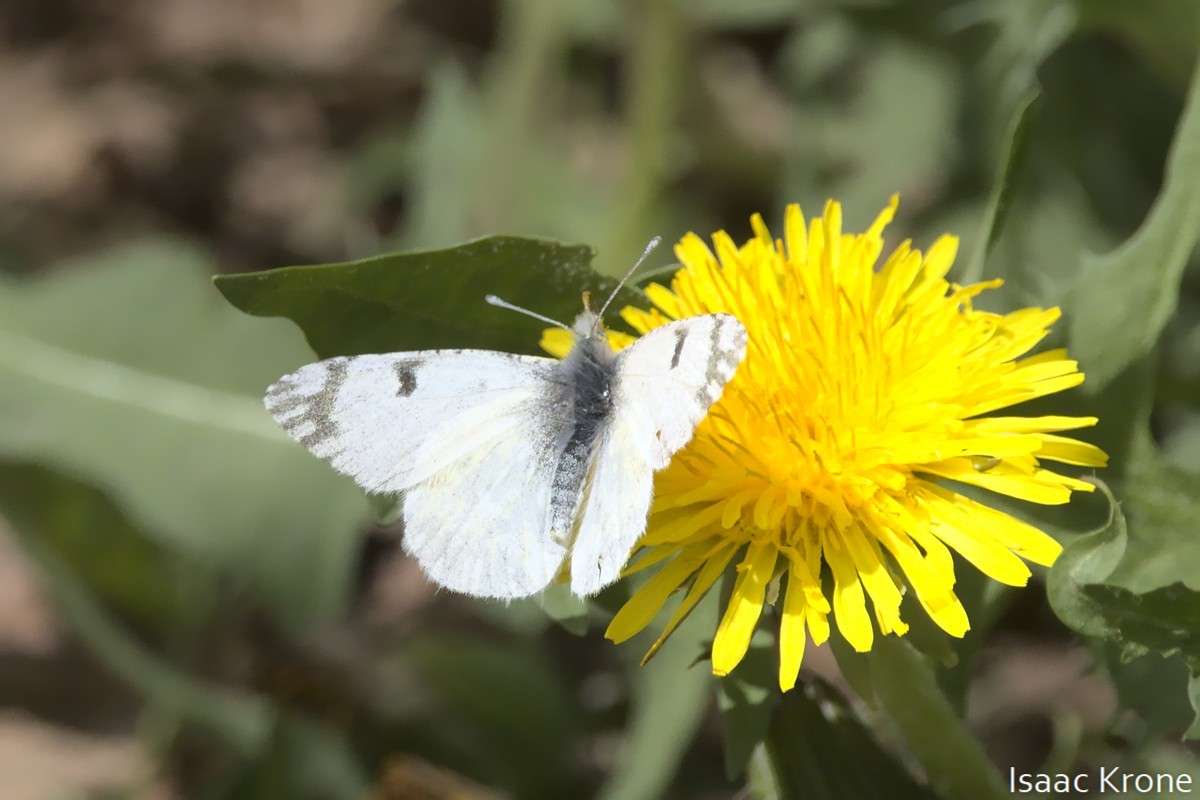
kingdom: Animalia
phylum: Arthropoda
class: Insecta
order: Lepidoptera
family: Pieridae
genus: Euchloe
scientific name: Euchloe ausonides
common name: Creamy marblewing
